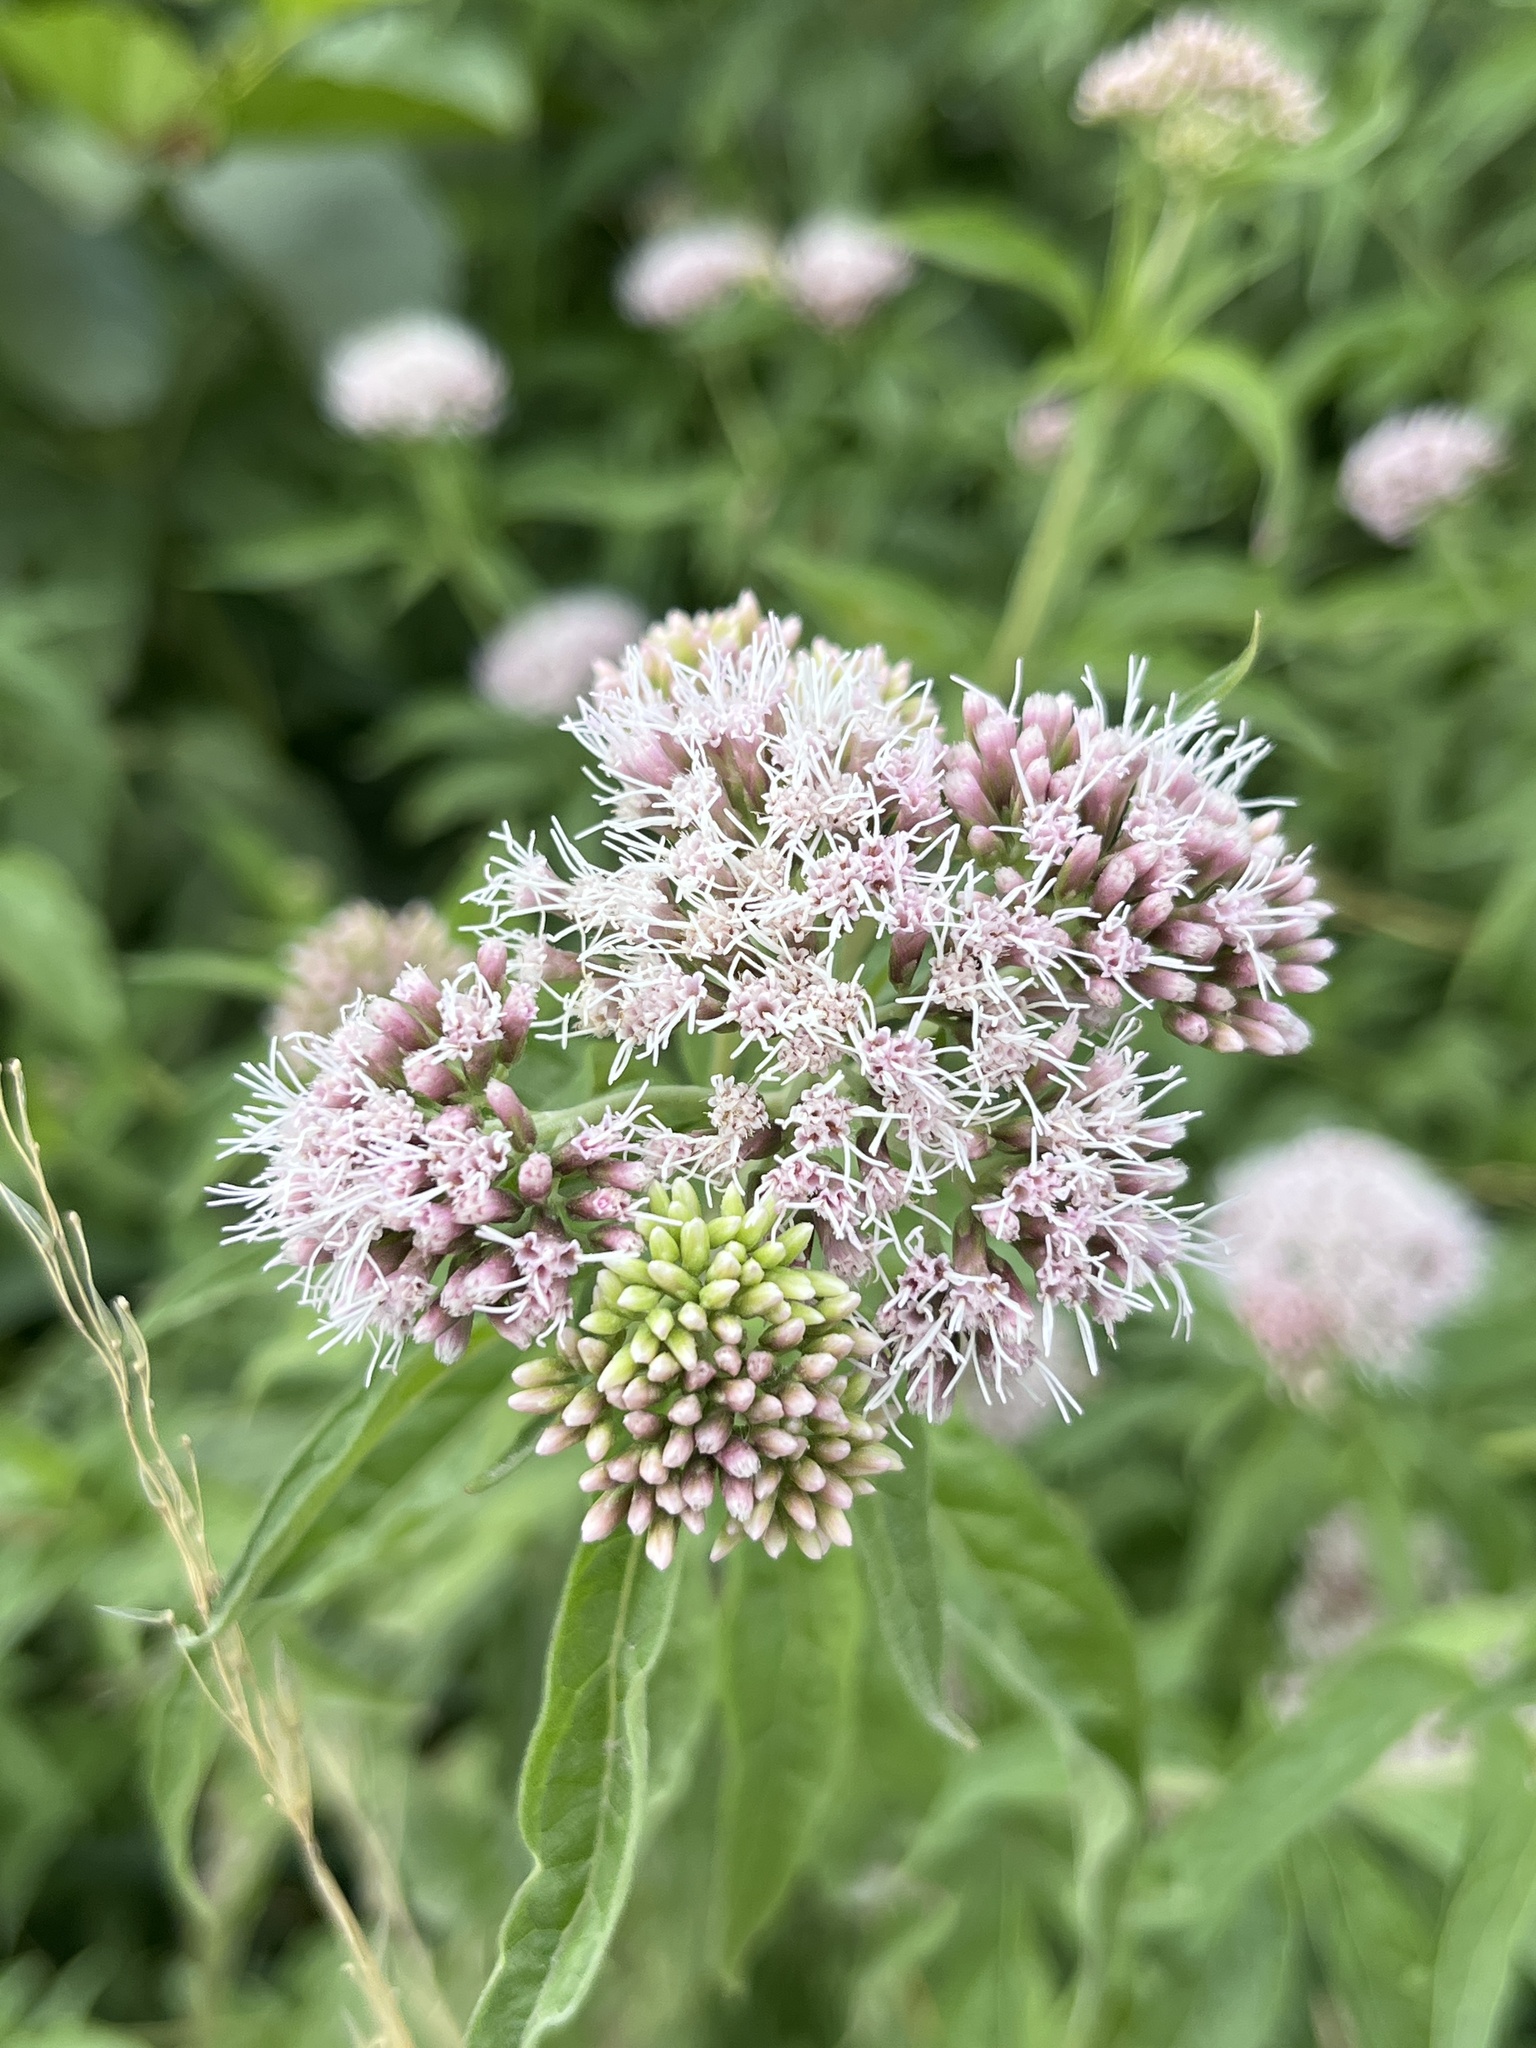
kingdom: Plantae
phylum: Tracheophyta
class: Magnoliopsida
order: Asterales
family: Asteraceae
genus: Eupatorium
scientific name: Eupatorium cannabinum
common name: Hemp-agrimony
